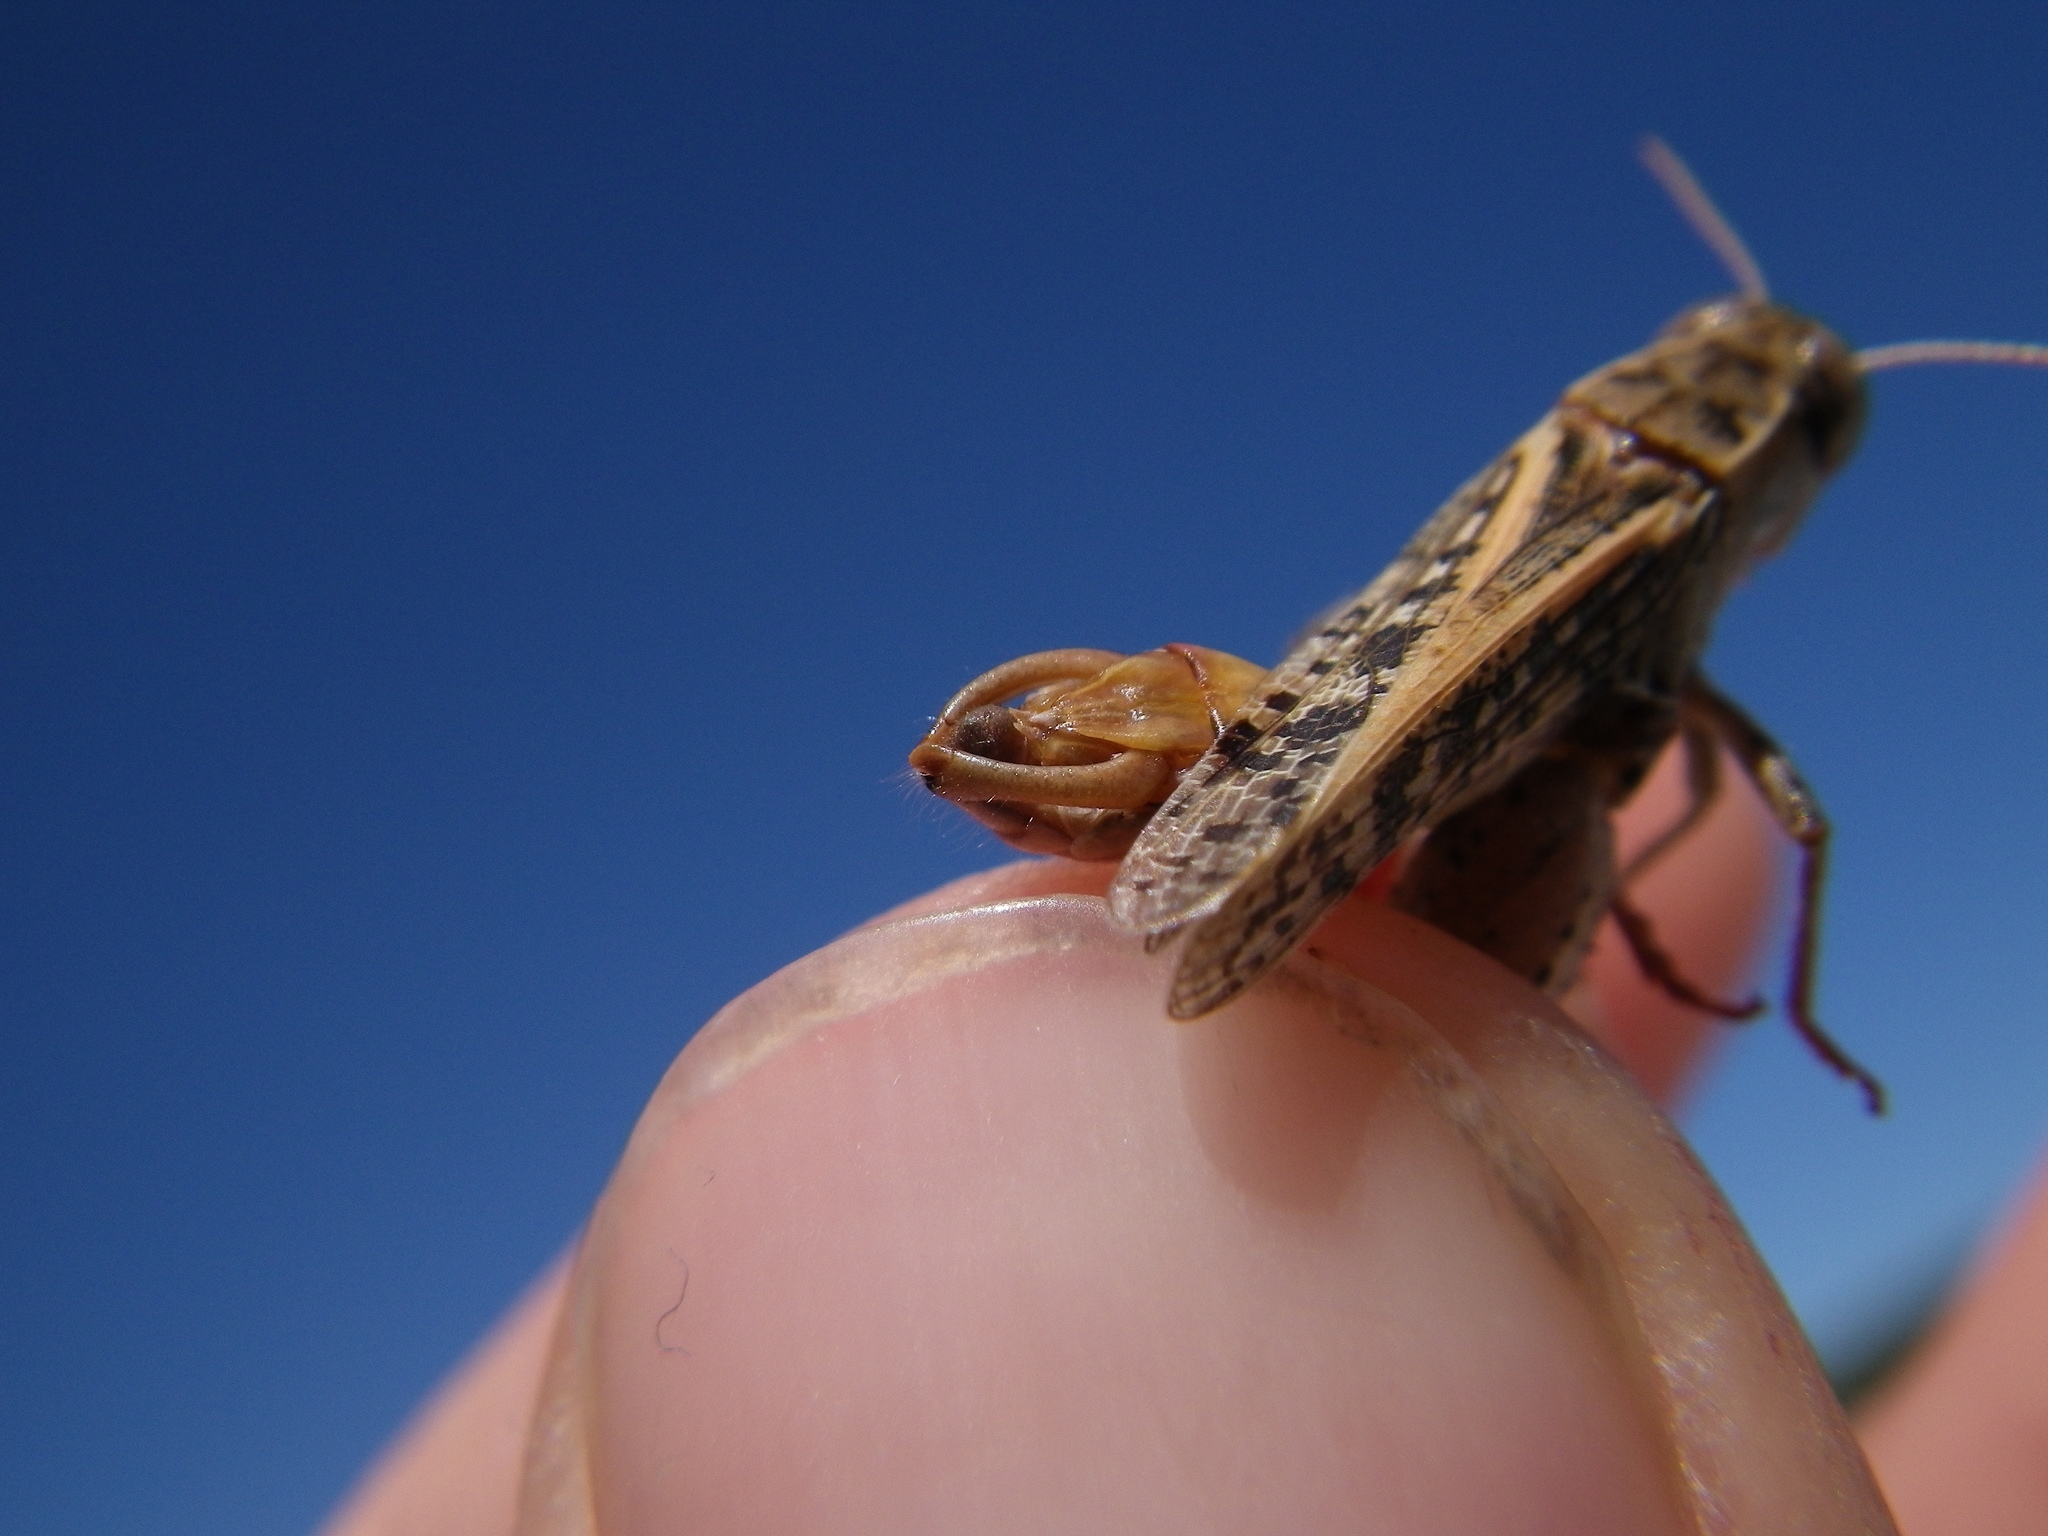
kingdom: Animalia
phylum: Arthropoda
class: Insecta
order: Orthoptera
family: Acrididae
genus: Calliptamus
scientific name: Calliptamus barbarus
